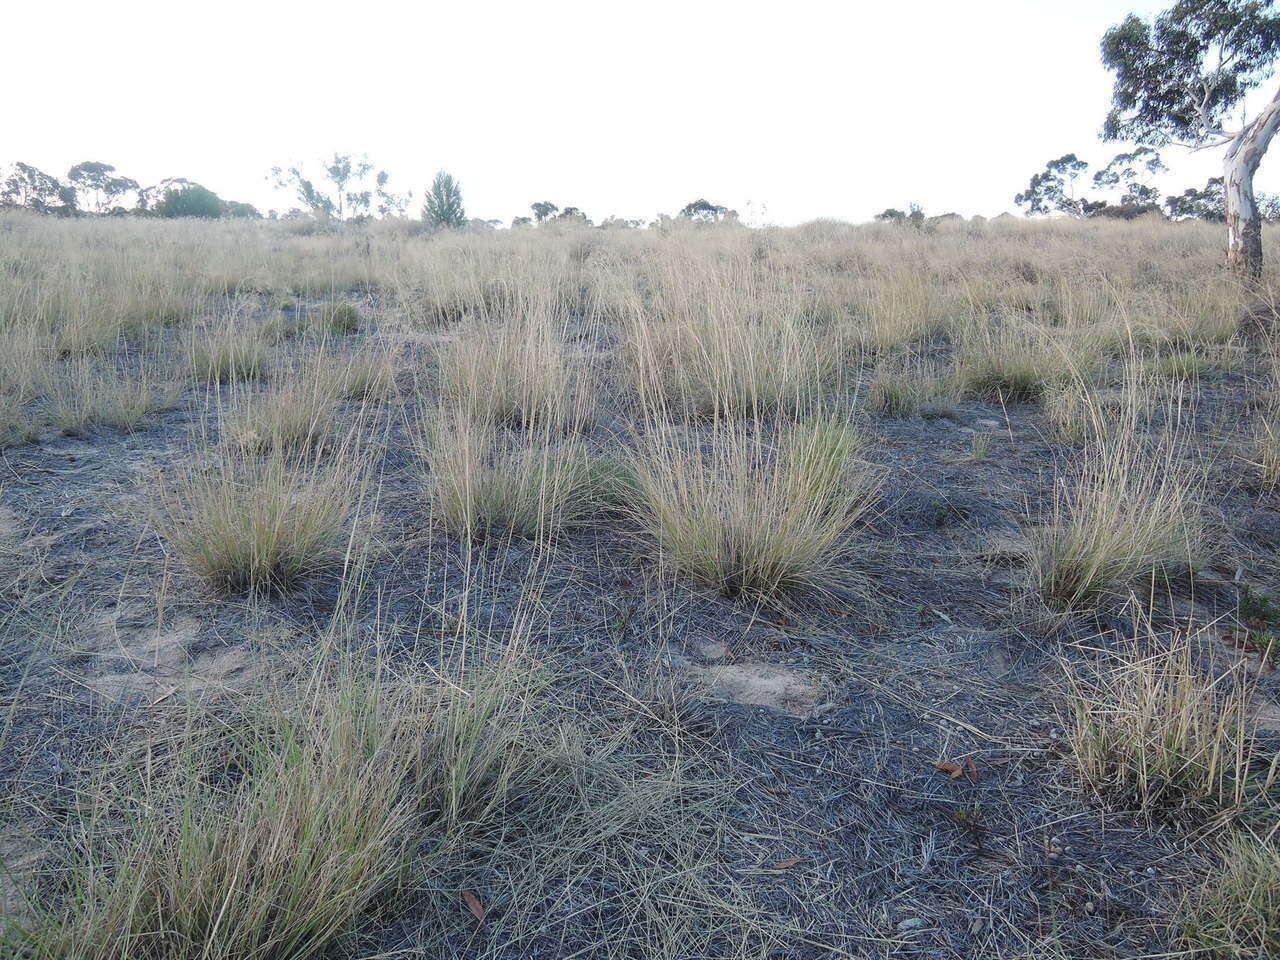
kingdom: Plantae
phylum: Tracheophyta
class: Liliopsida
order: Poales
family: Poaceae
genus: Eragrostis
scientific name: Eragrostis curvula
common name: African love-grass
